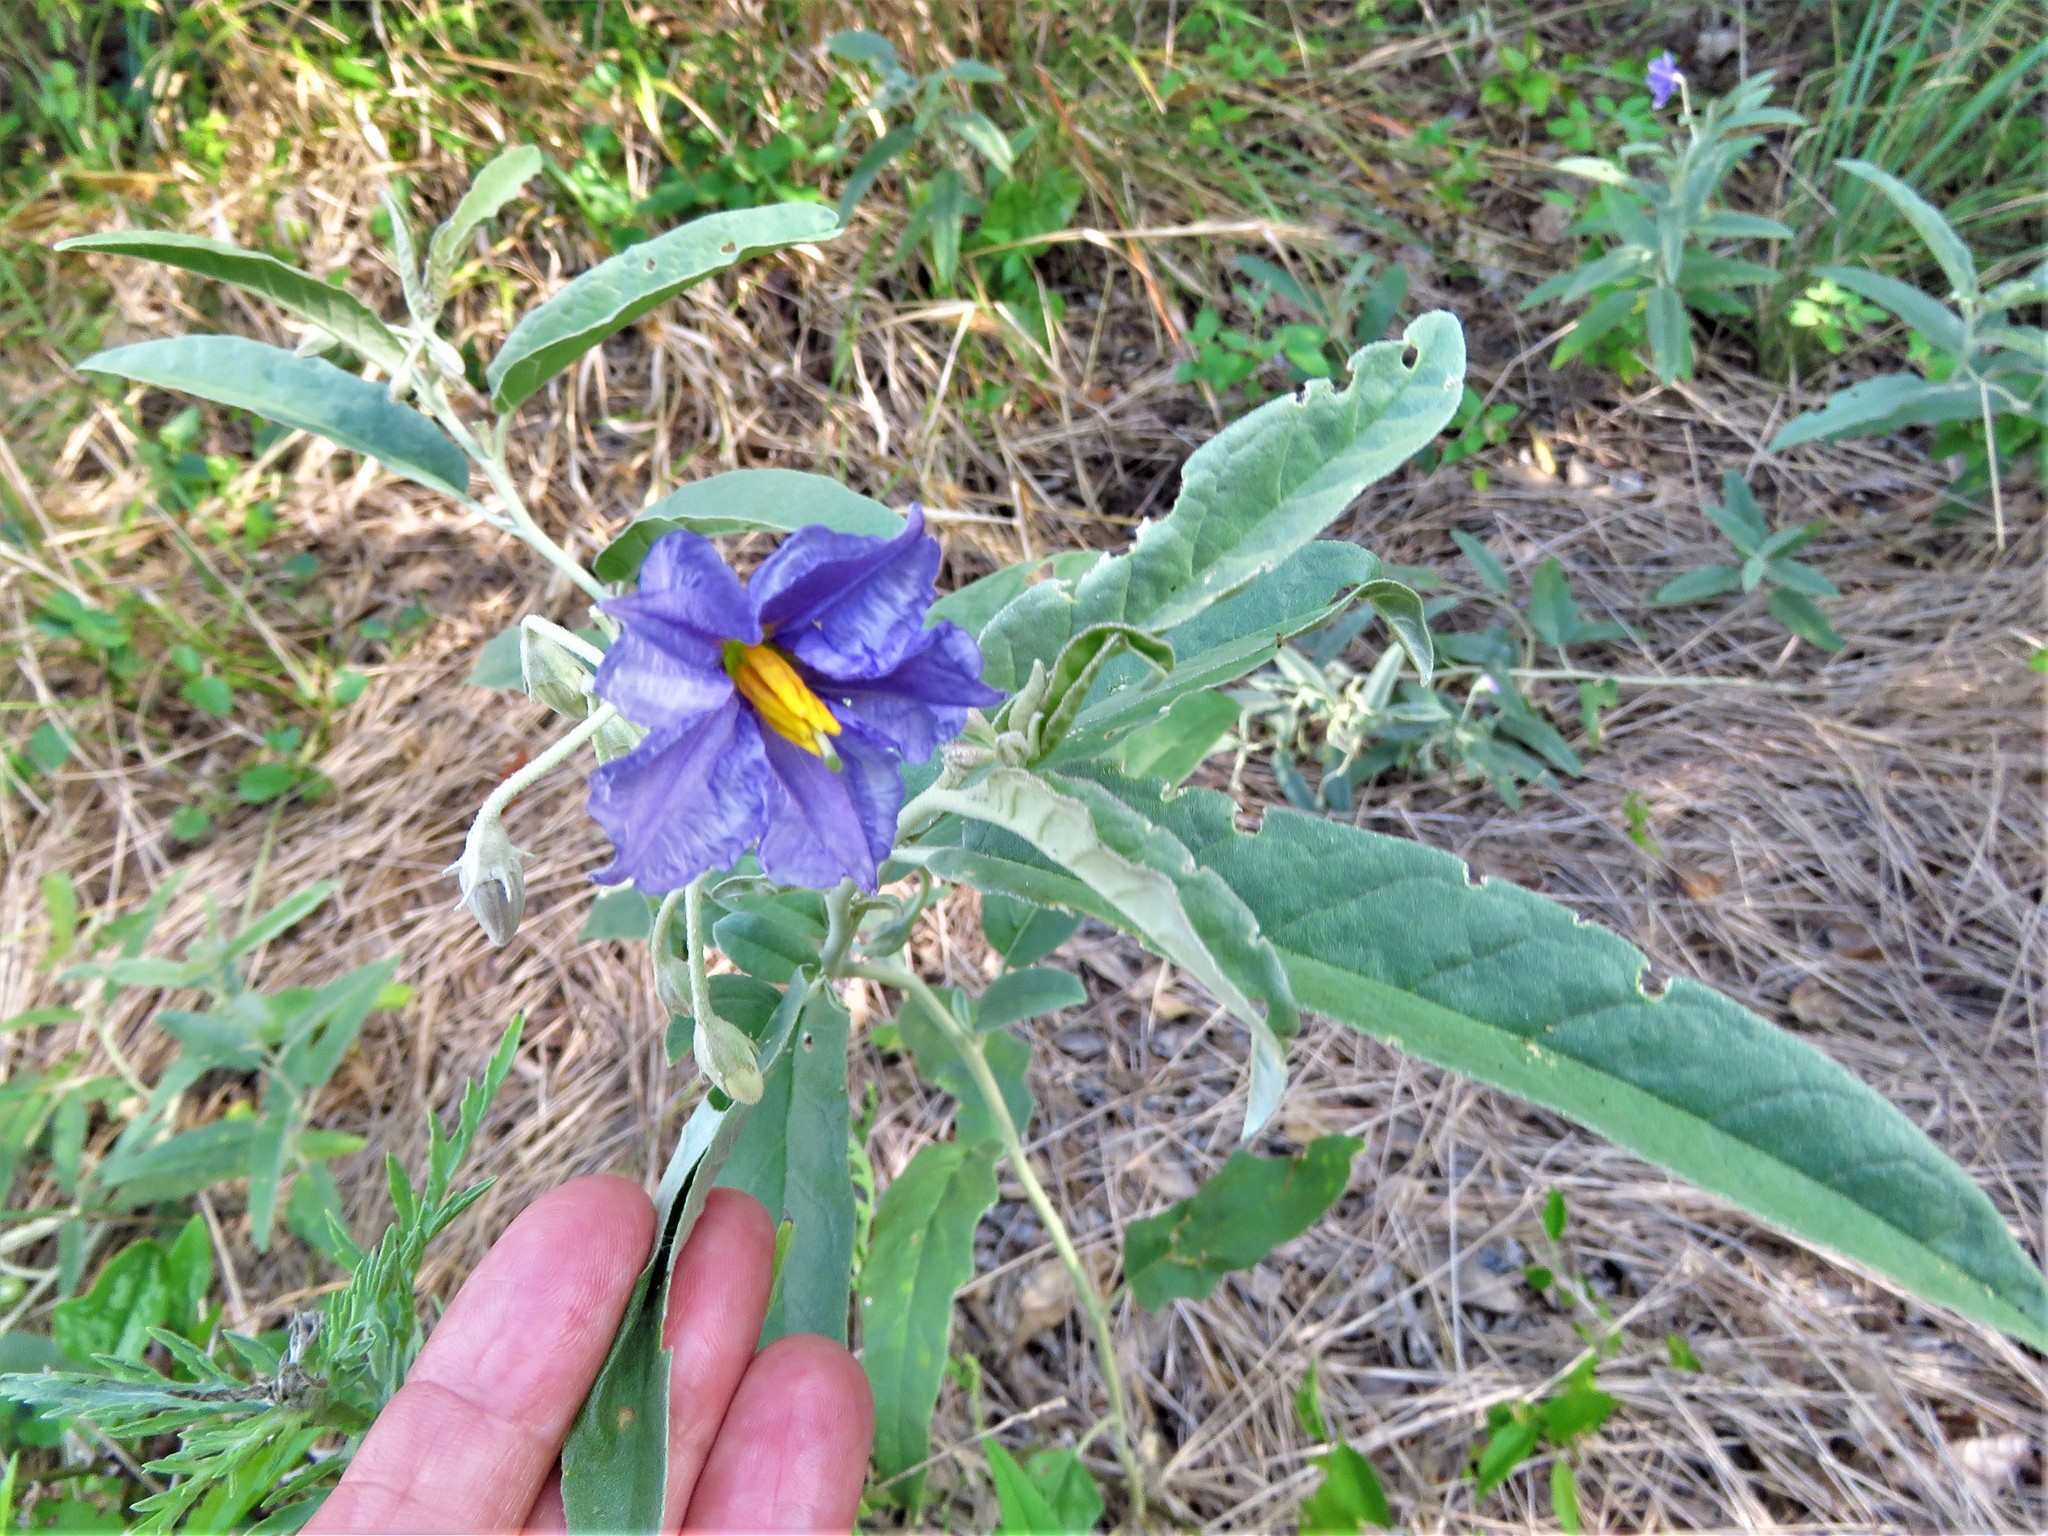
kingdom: Plantae
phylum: Tracheophyta
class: Magnoliopsida
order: Solanales
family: Solanaceae
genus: Solanum
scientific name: Solanum elaeagnifolium
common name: Silverleaf nightshade
